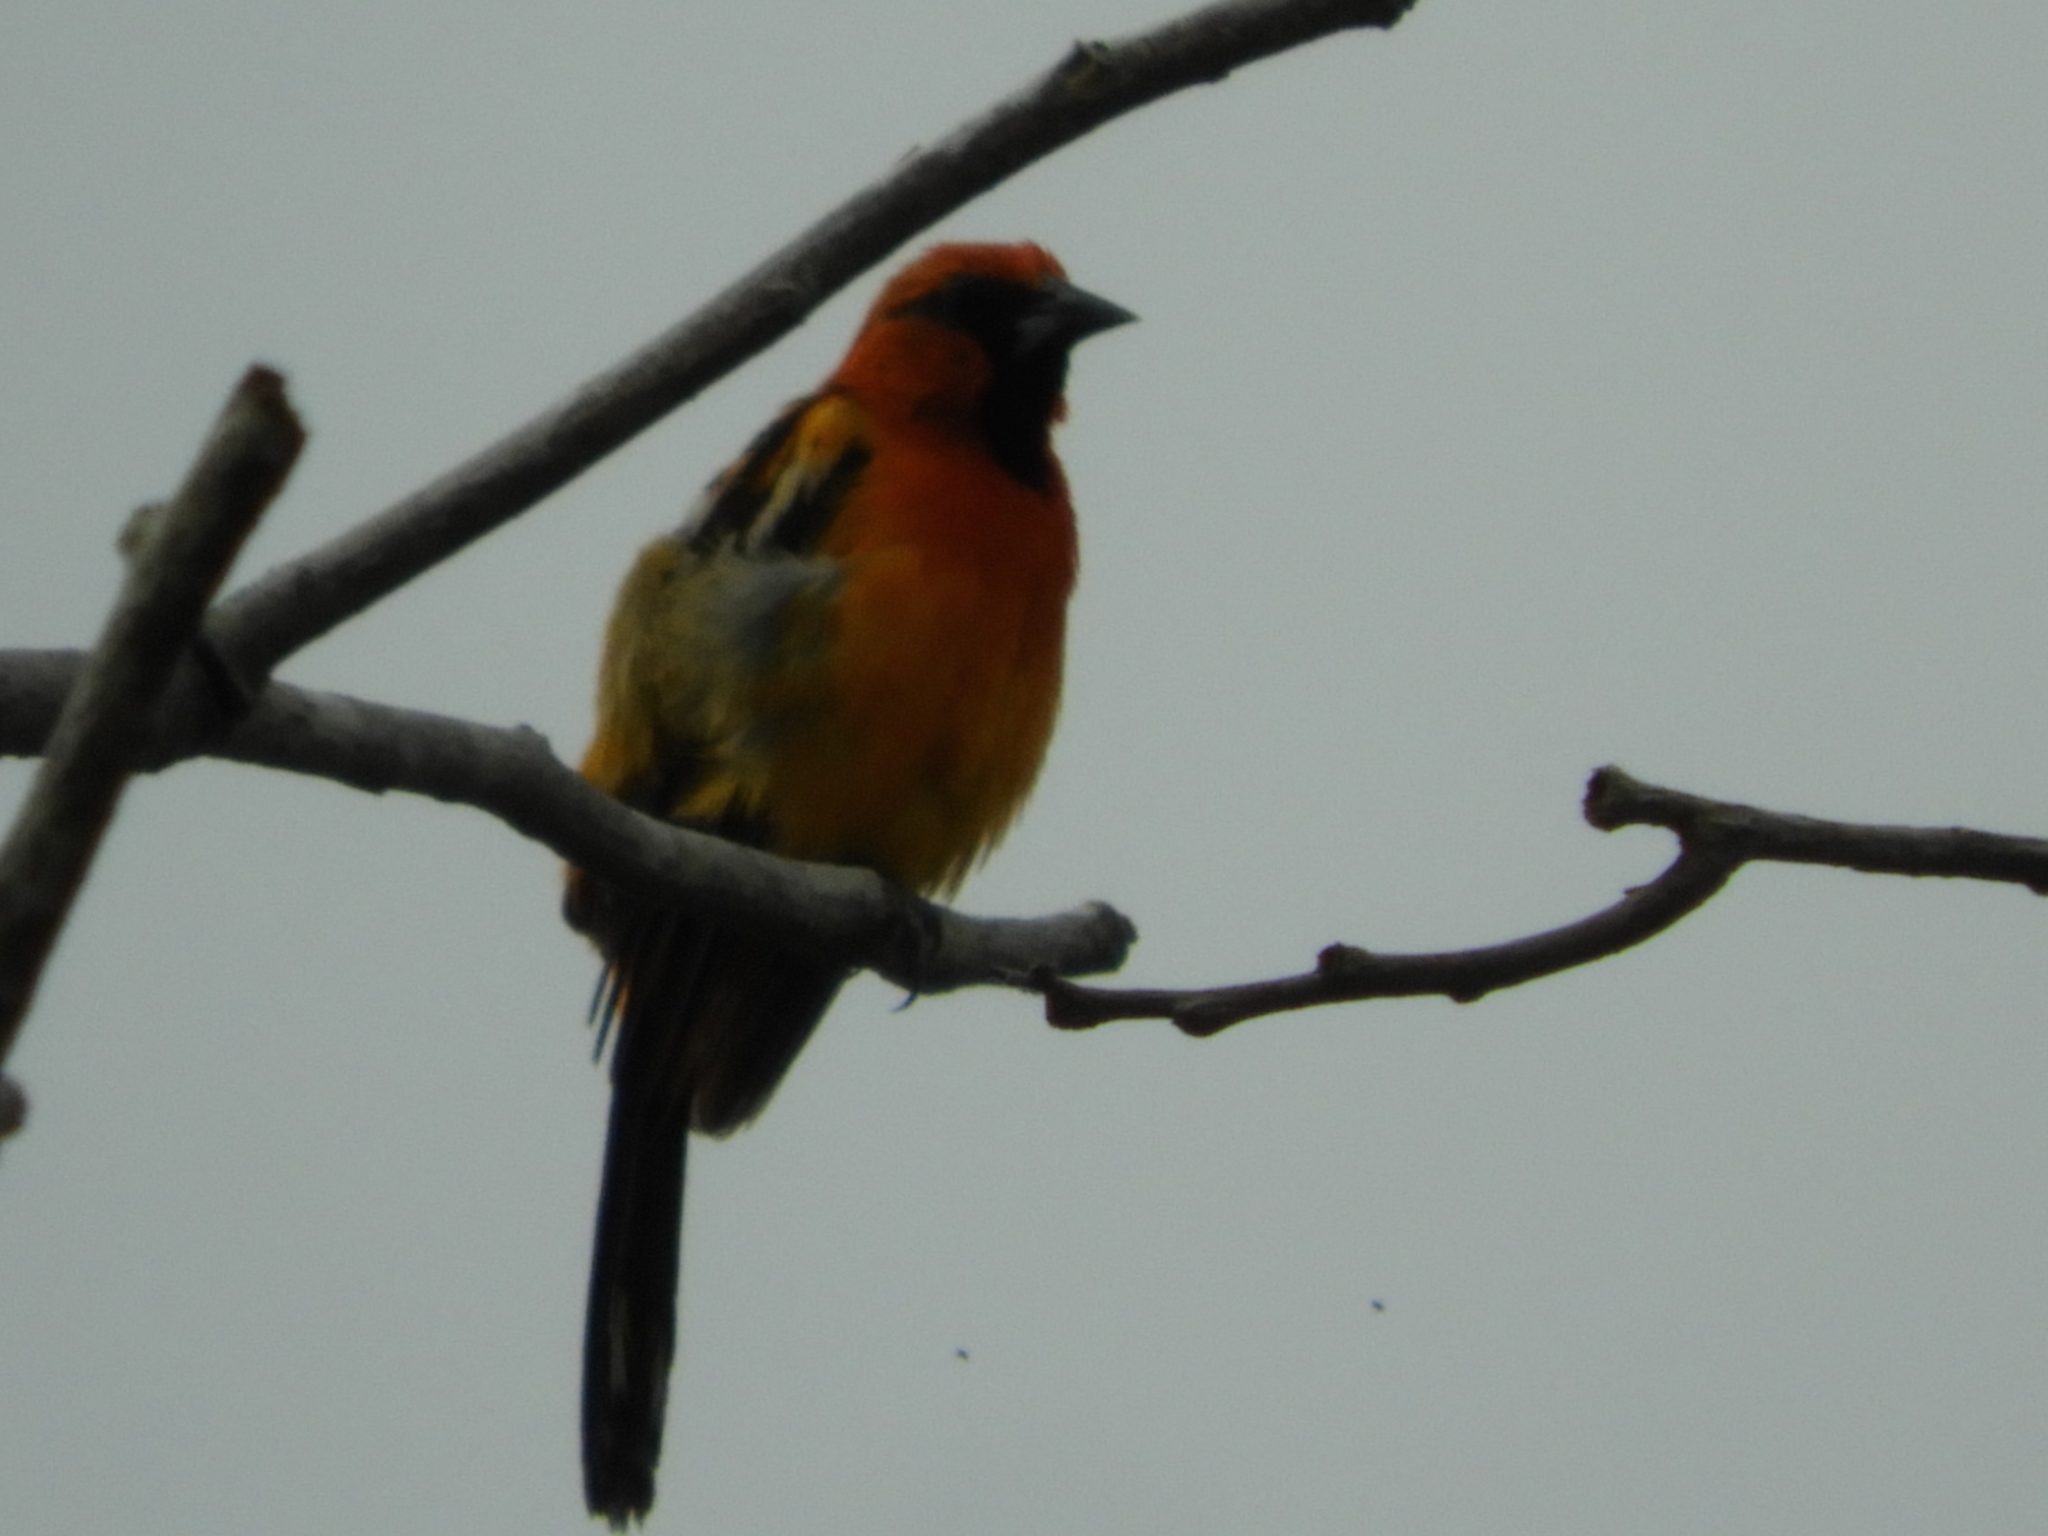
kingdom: Animalia
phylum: Chordata
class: Aves
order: Passeriformes
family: Icteridae
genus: Icterus
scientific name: Icterus pustulatus
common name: Streak-backed oriole
